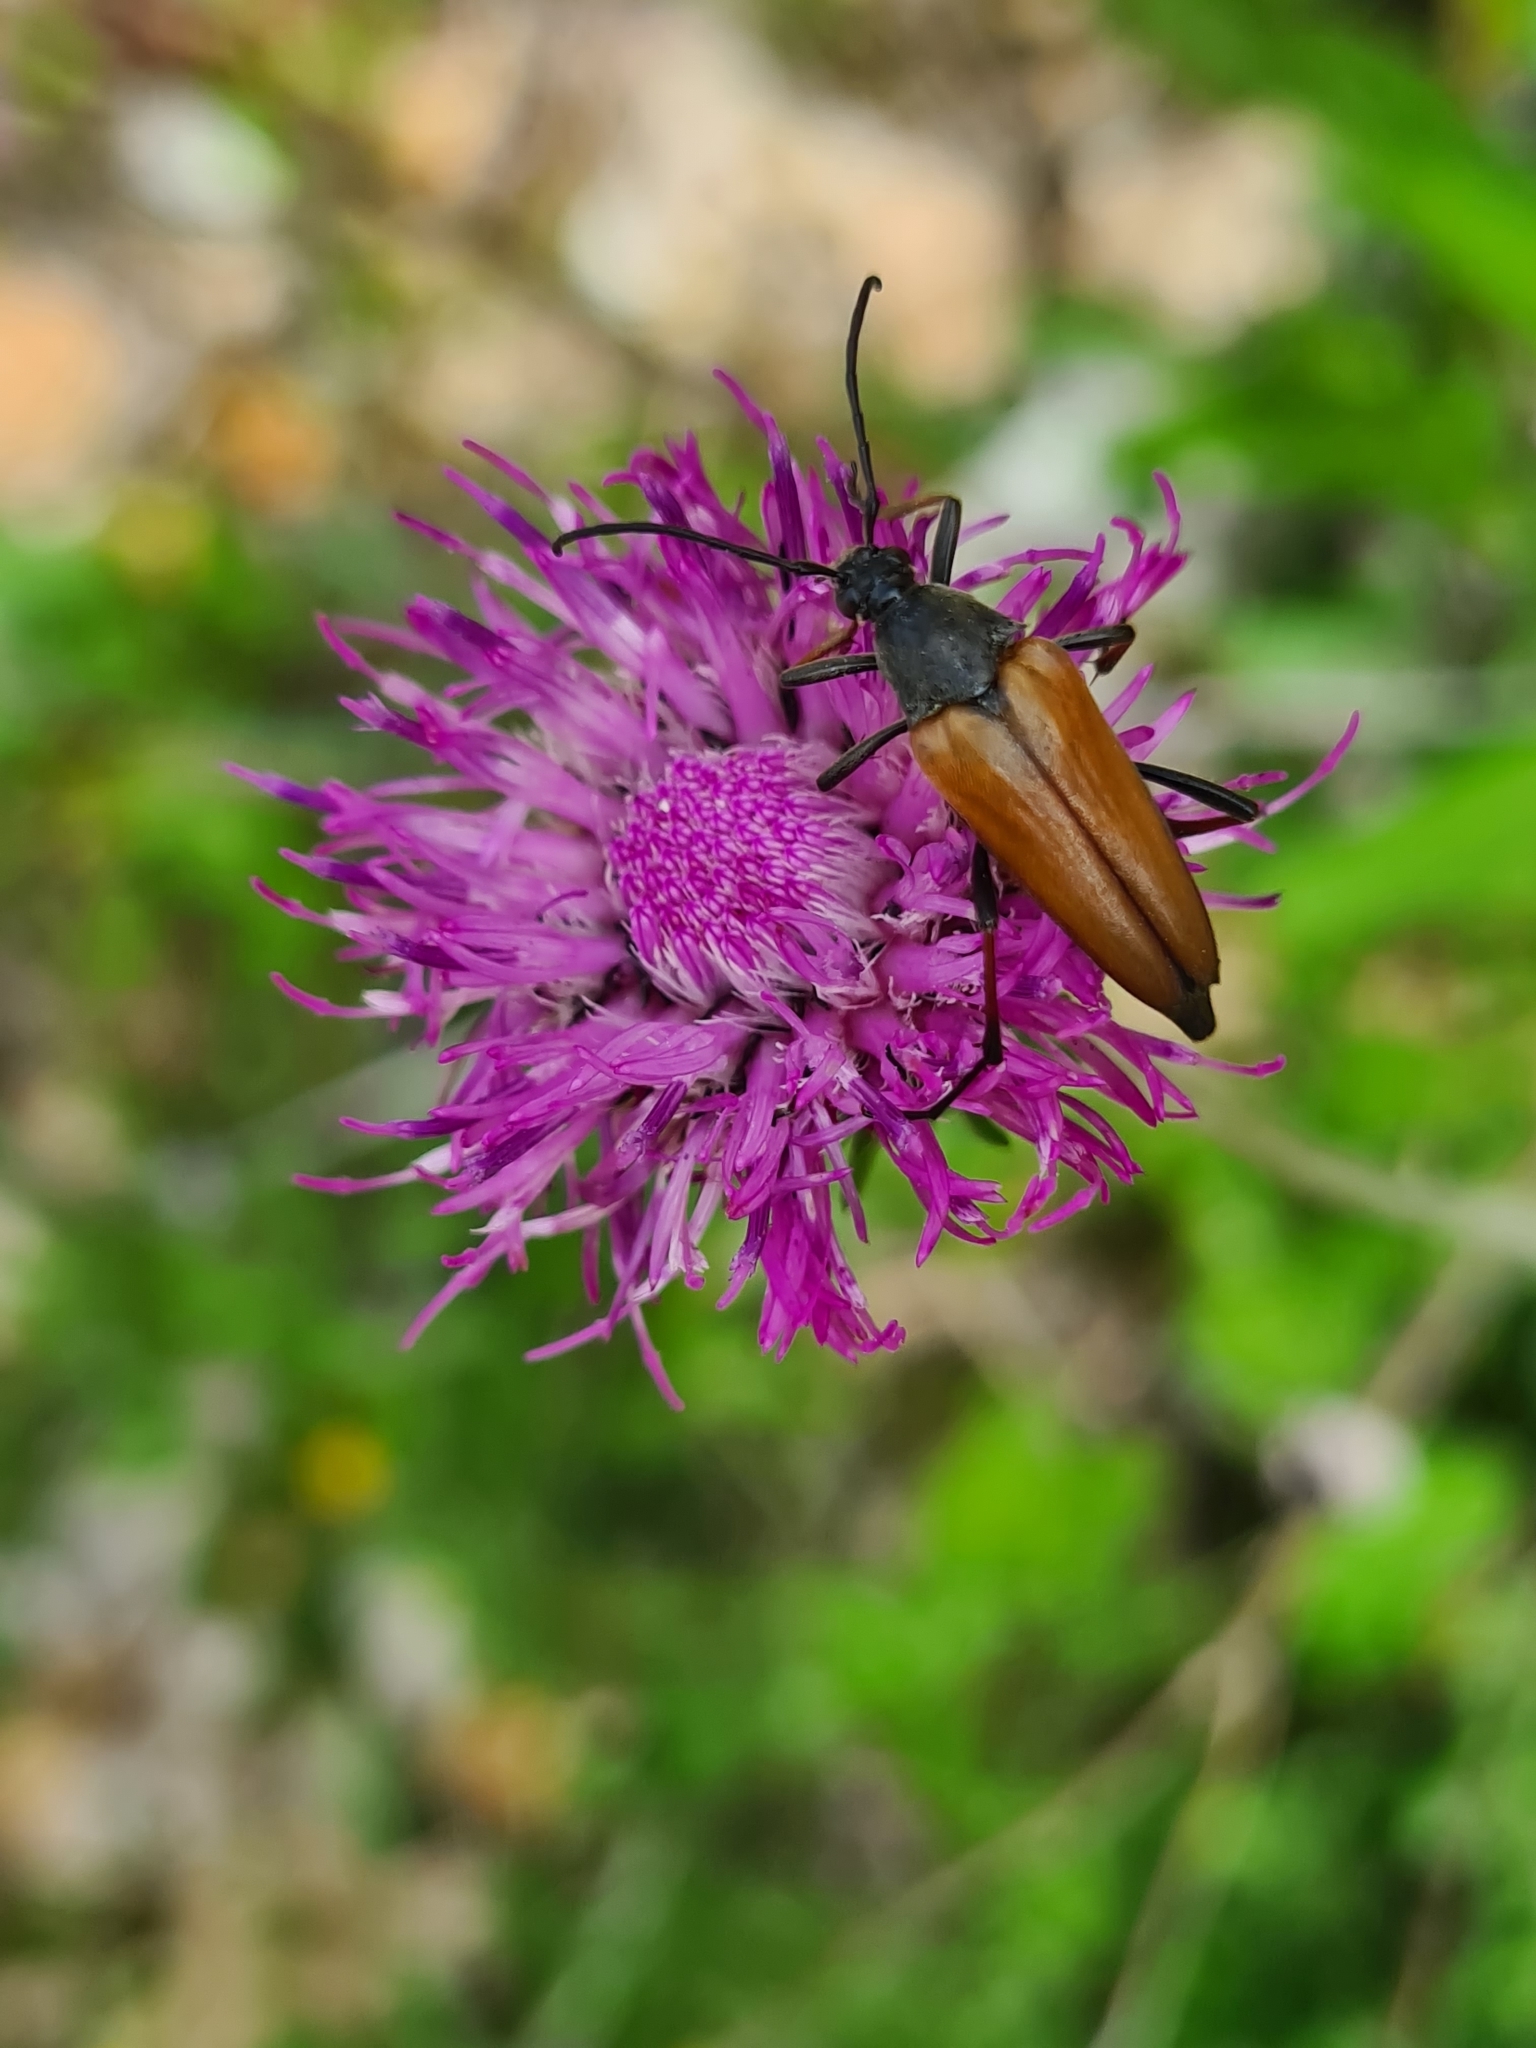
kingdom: Animalia
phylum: Arthropoda
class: Insecta
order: Coleoptera
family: Cerambycidae
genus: Etorofus
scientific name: Etorofus pubescens
